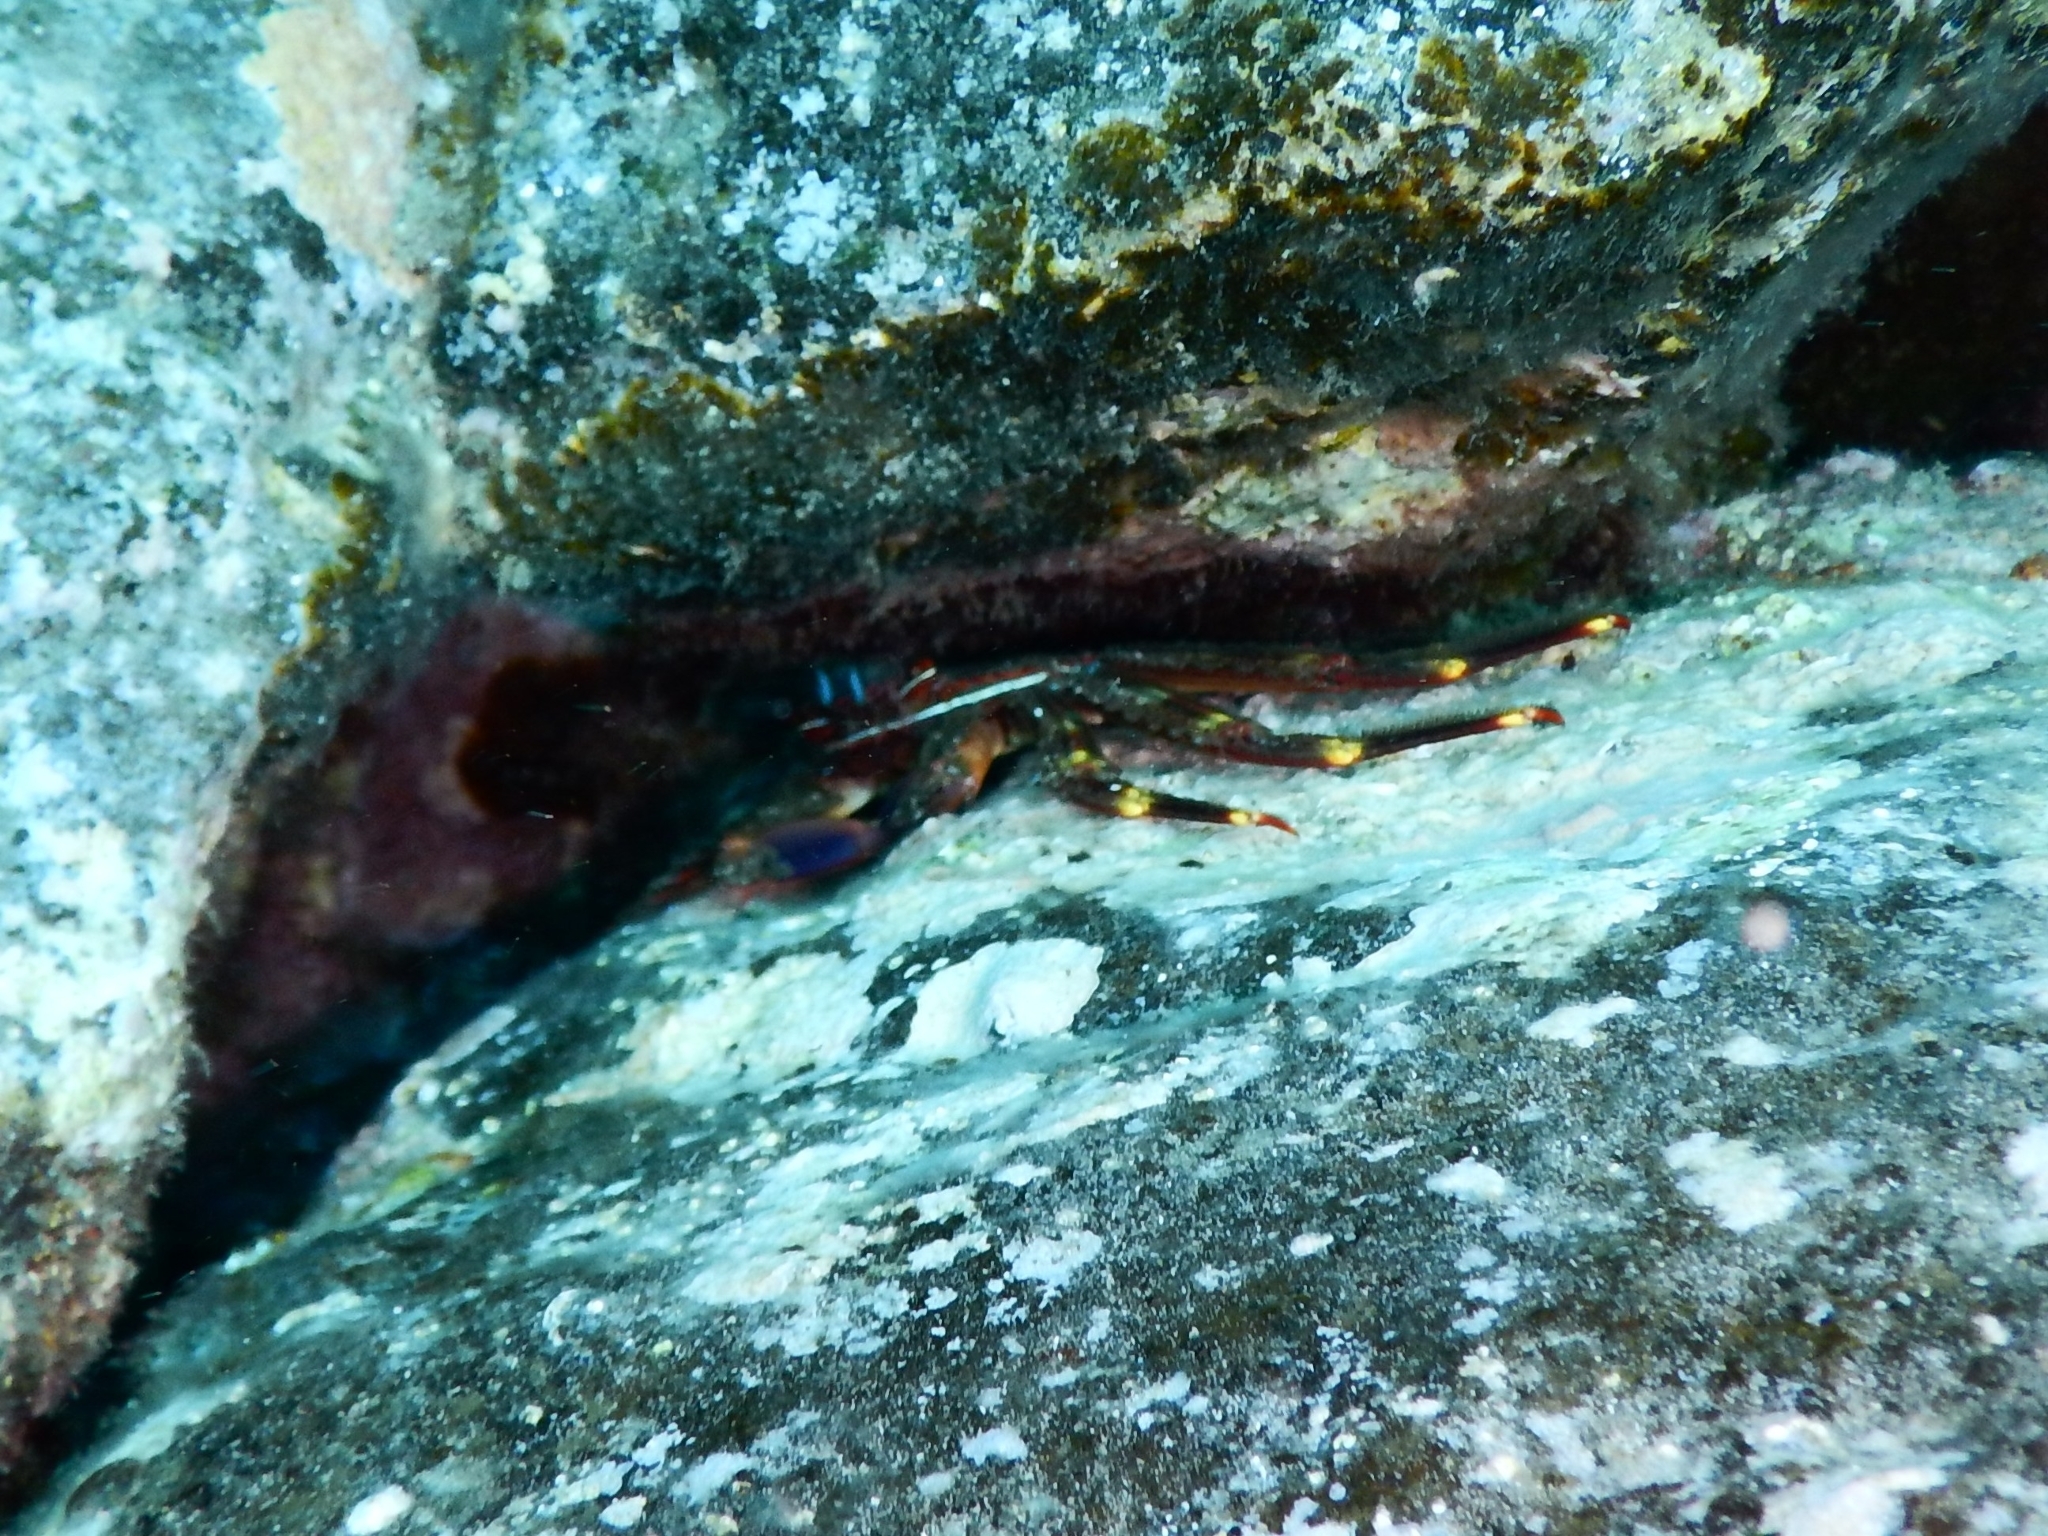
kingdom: Animalia
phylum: Arthropoda
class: Malacostraca
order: Decapoda
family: Percnidae
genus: Percnon
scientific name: Percnon gibbesi
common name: Nimble spray crab
